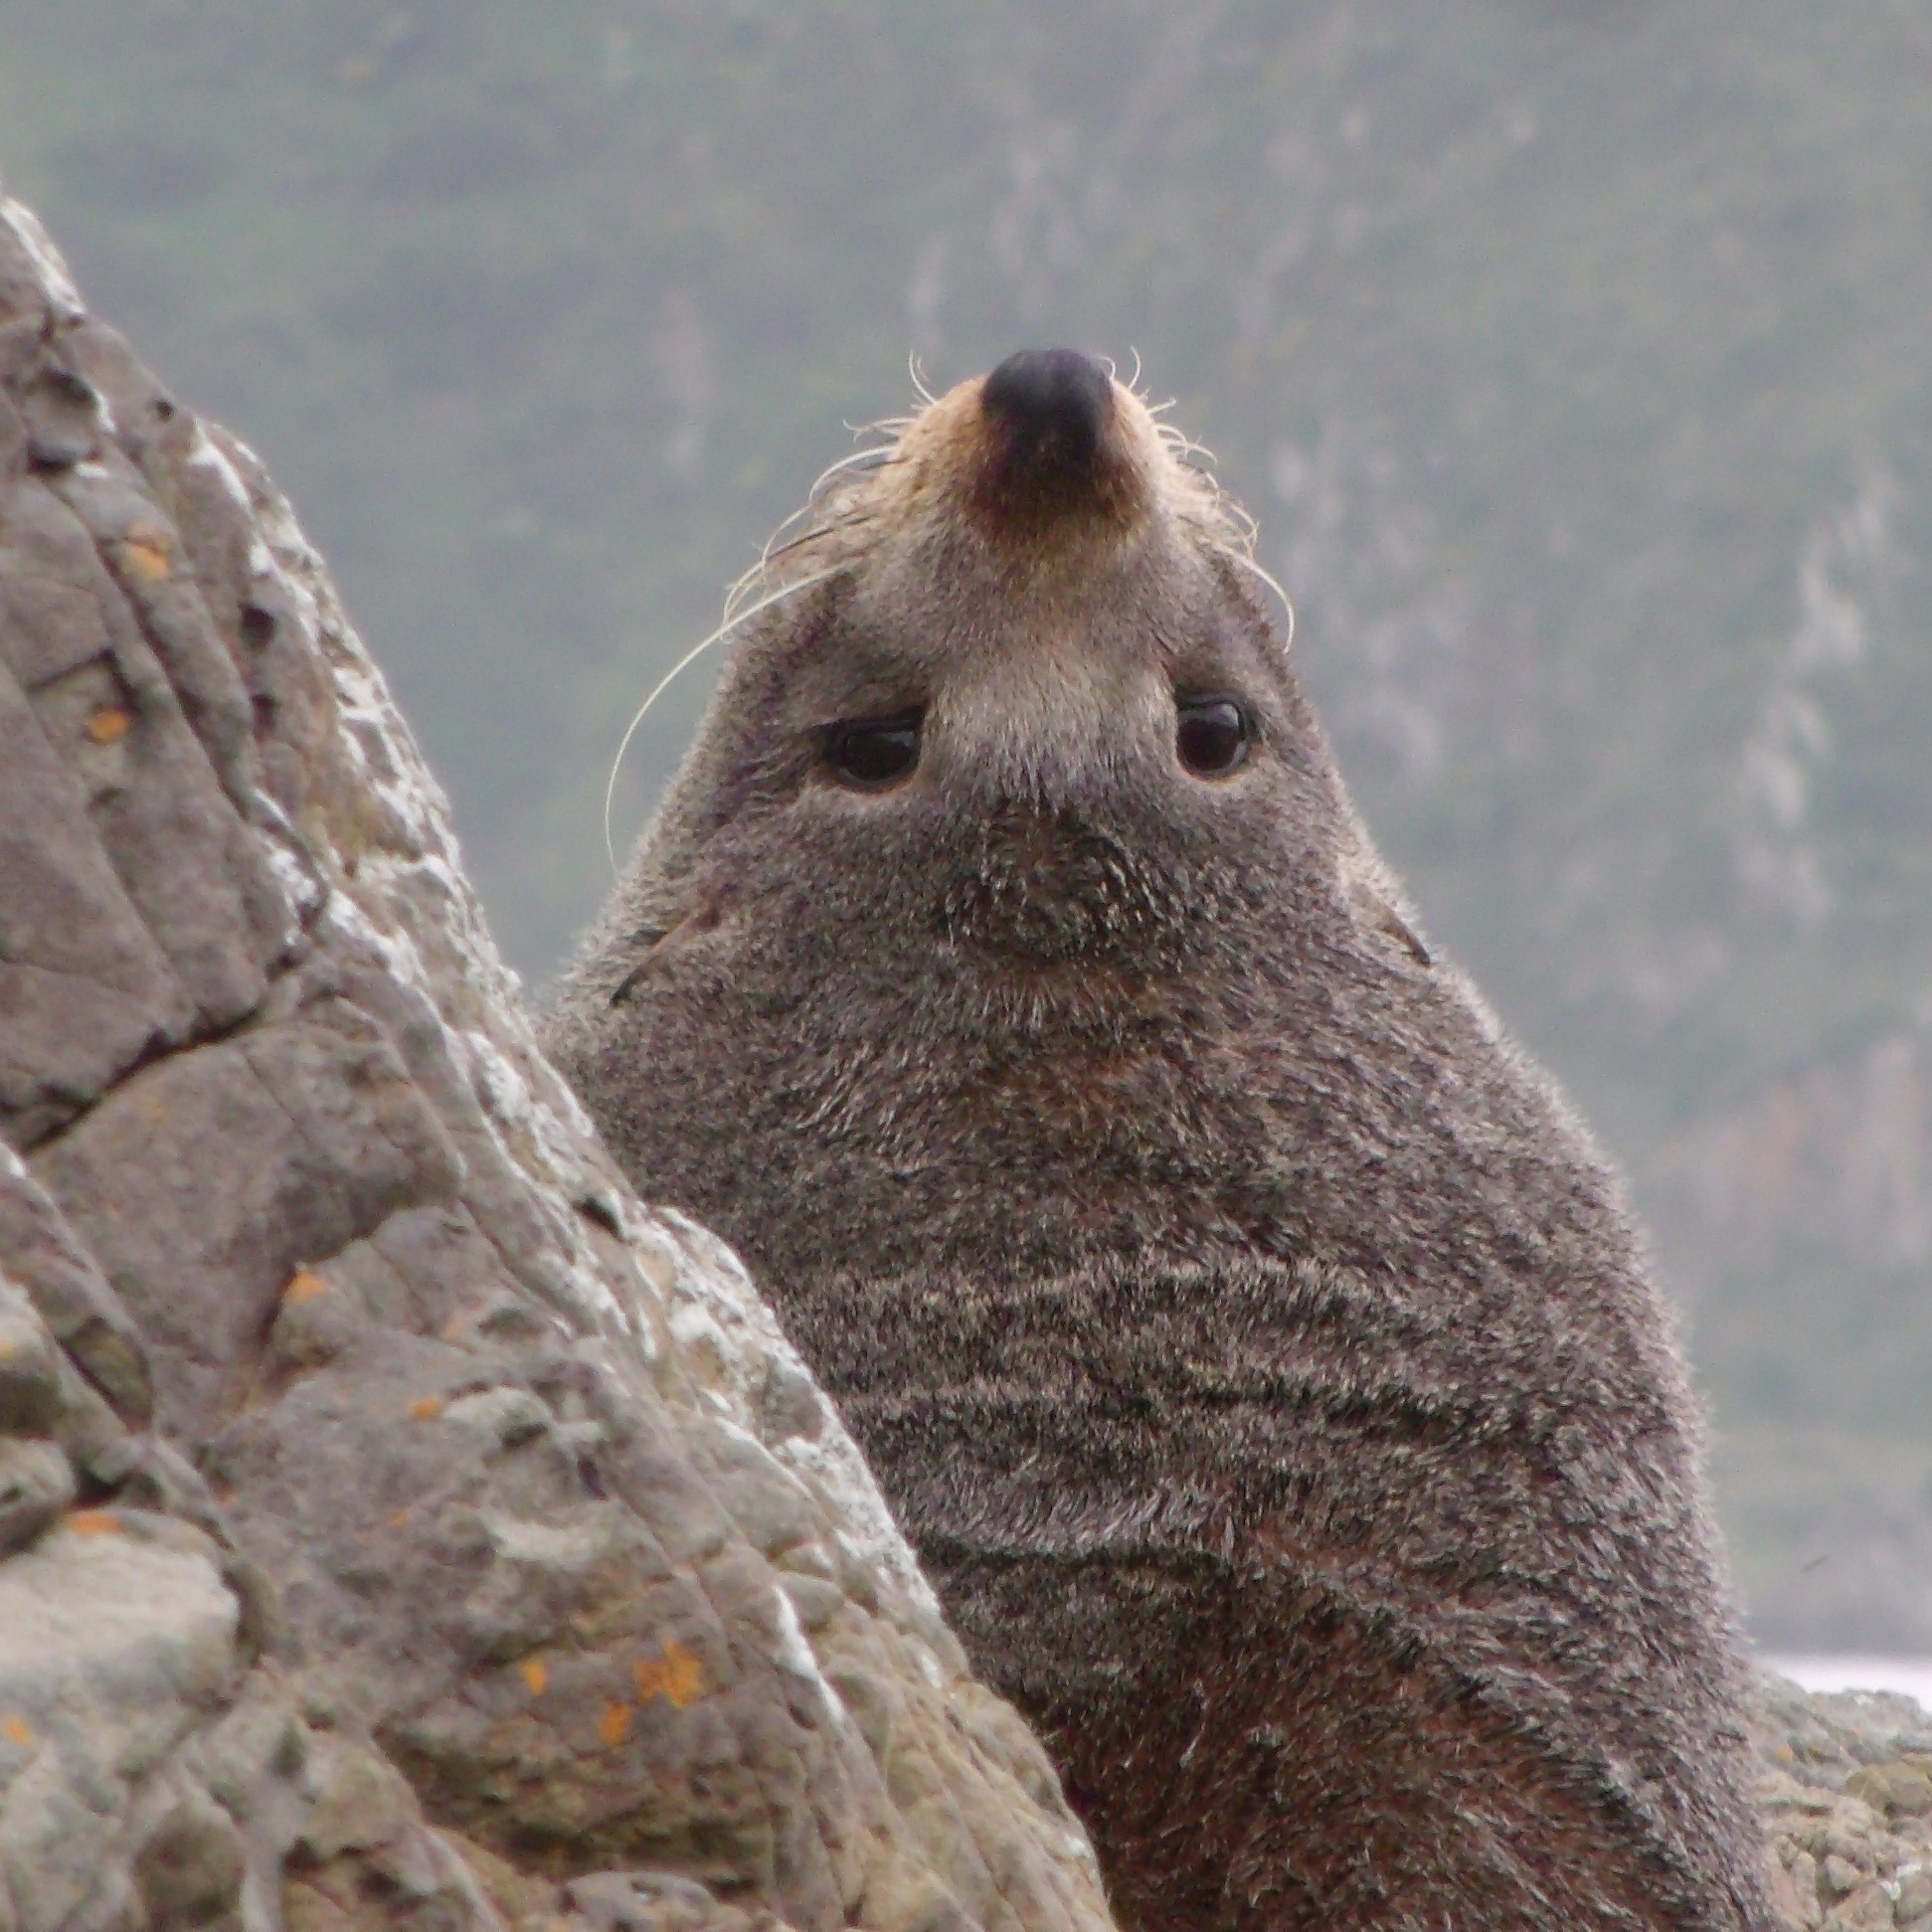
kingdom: Animalia
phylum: Chordata
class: Mammalia
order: Carnivora
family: Otariidae
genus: Arctocephalus
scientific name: Arctocephalus forsteri
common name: New zealand fur seal
